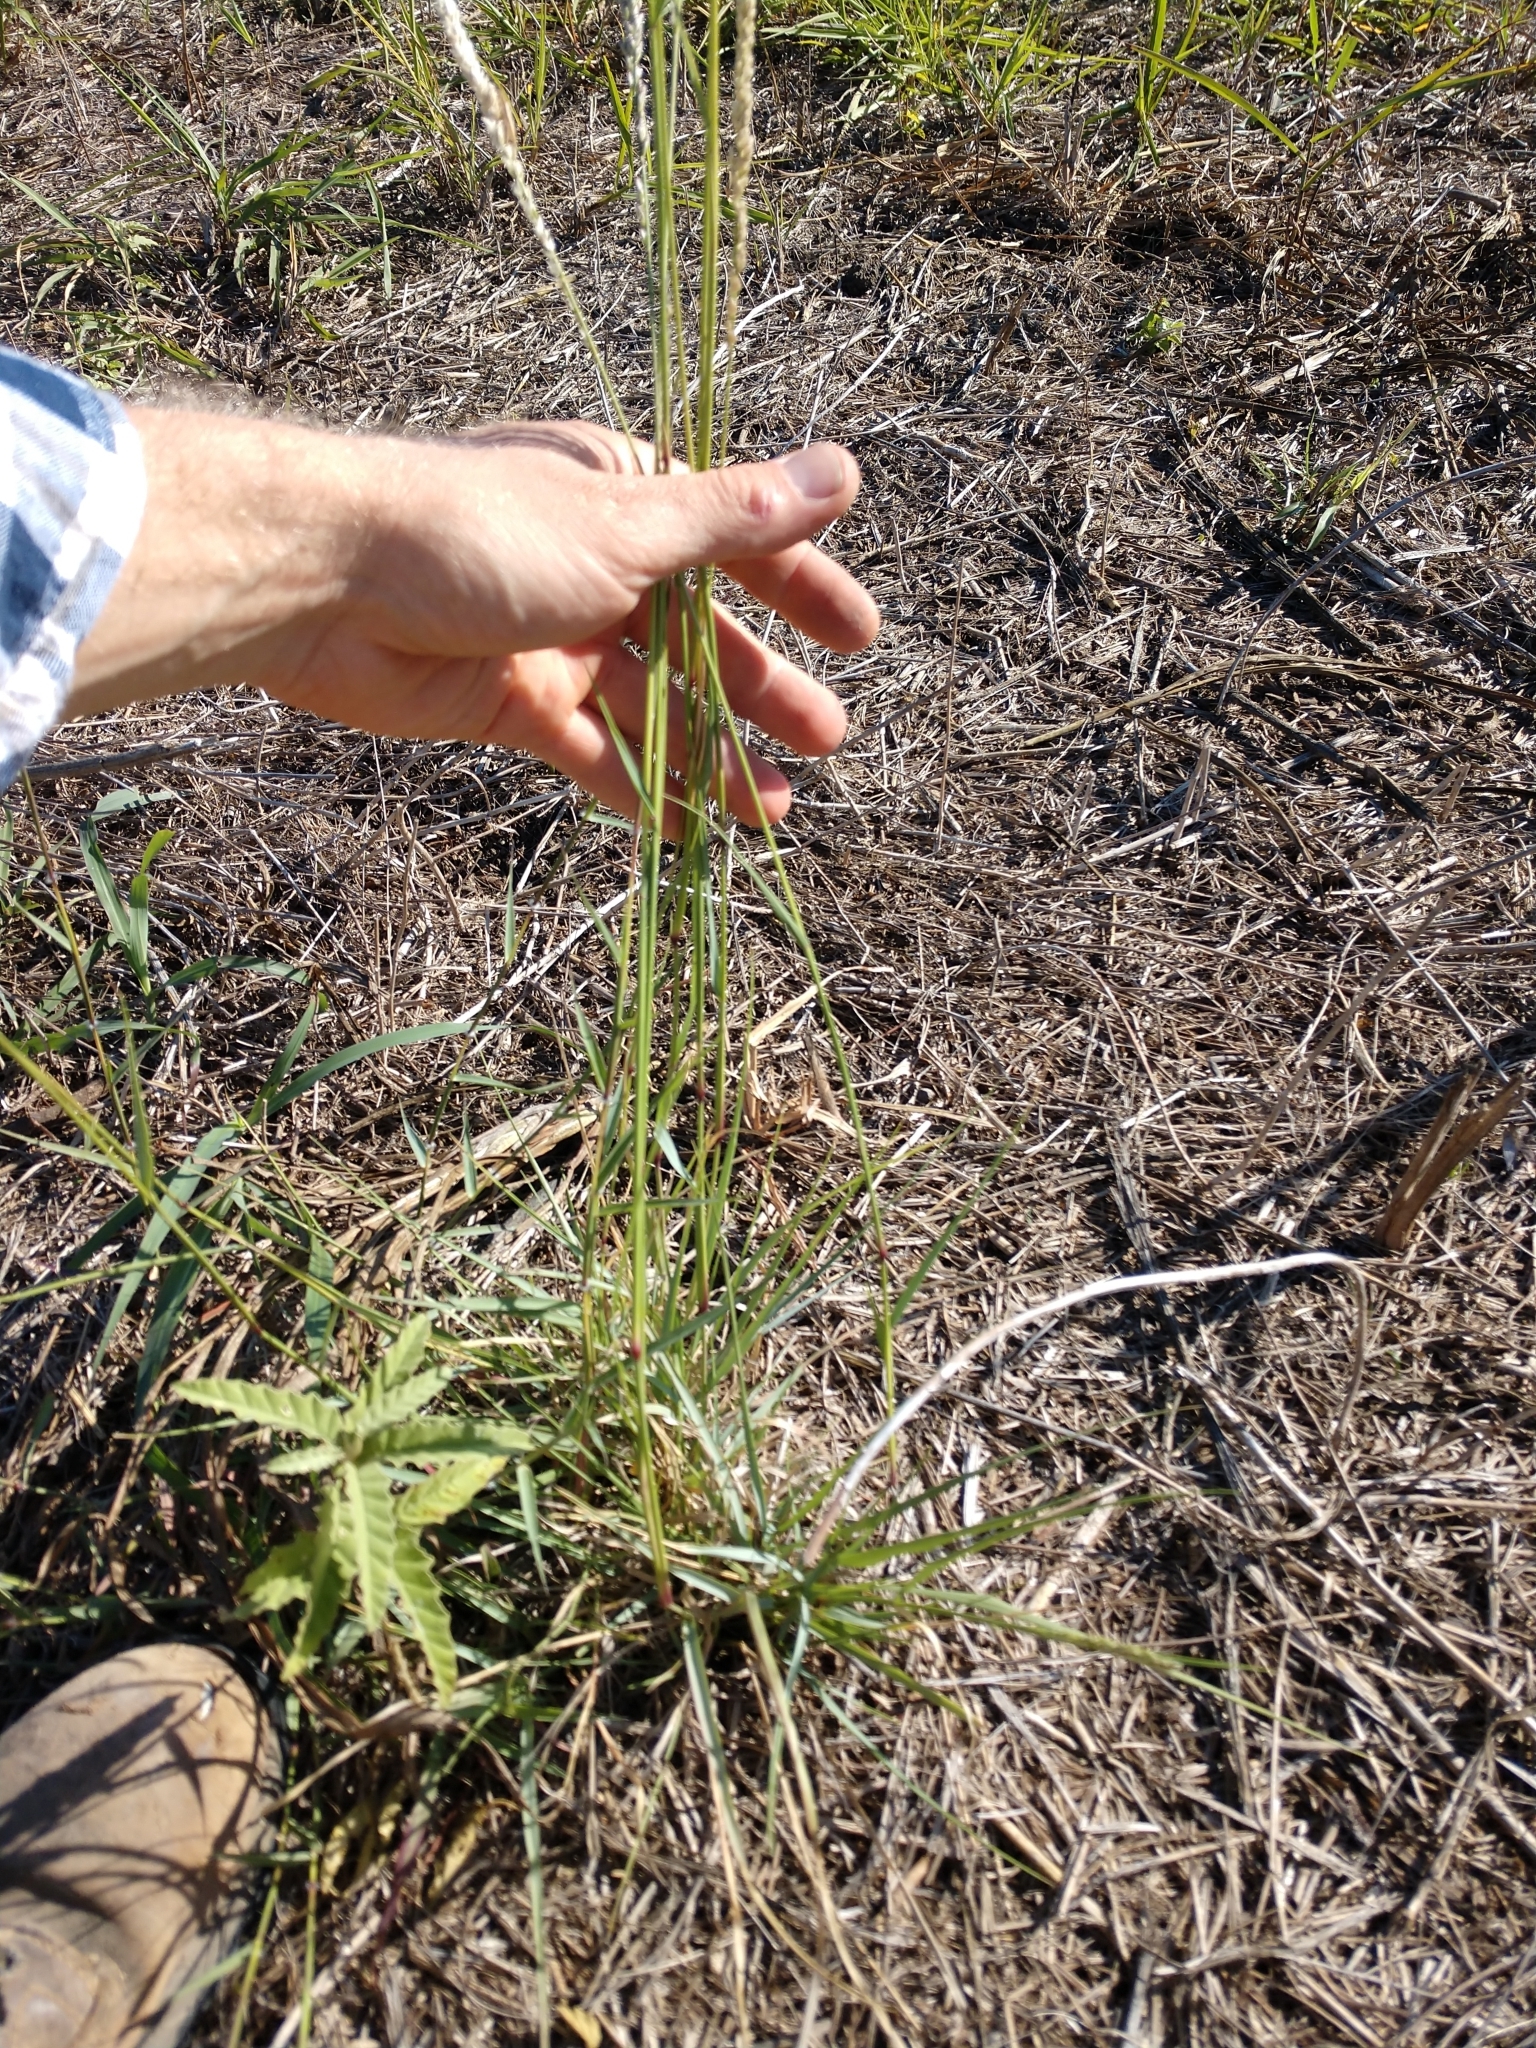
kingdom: Plantae
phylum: Tracheophyta
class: Liliopsida
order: Poales
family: Poaceae
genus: Tridens
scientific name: Tridens albescens
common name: White tridens
